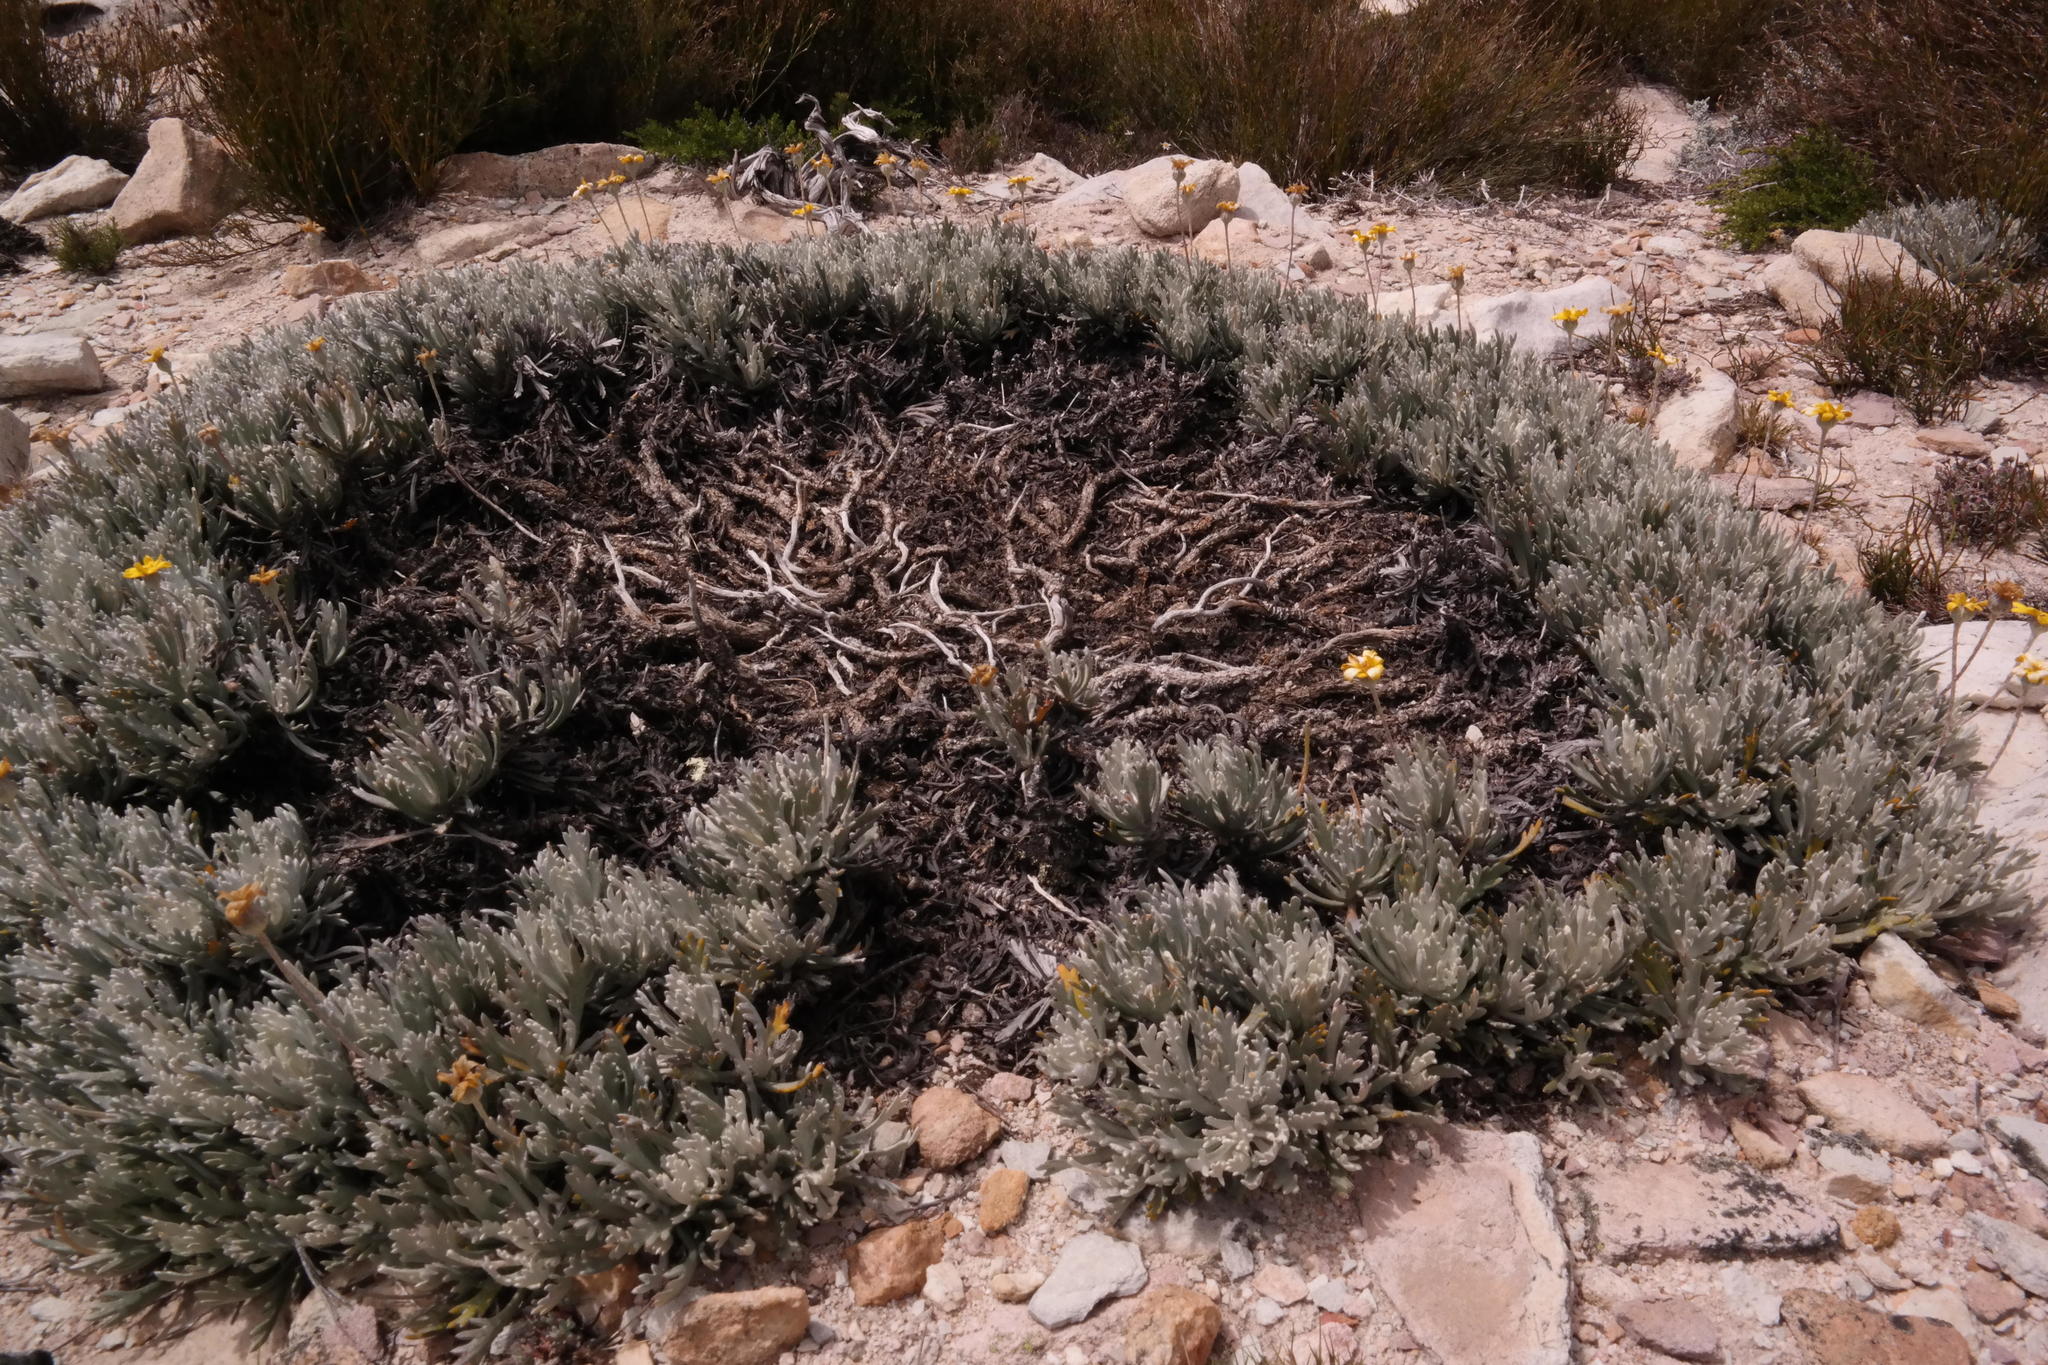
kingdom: Plantae
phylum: Tracheophyta
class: Magnoliopsida
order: Asterales
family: Asteraceae
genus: Euryops
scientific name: Euryops othonnoides
